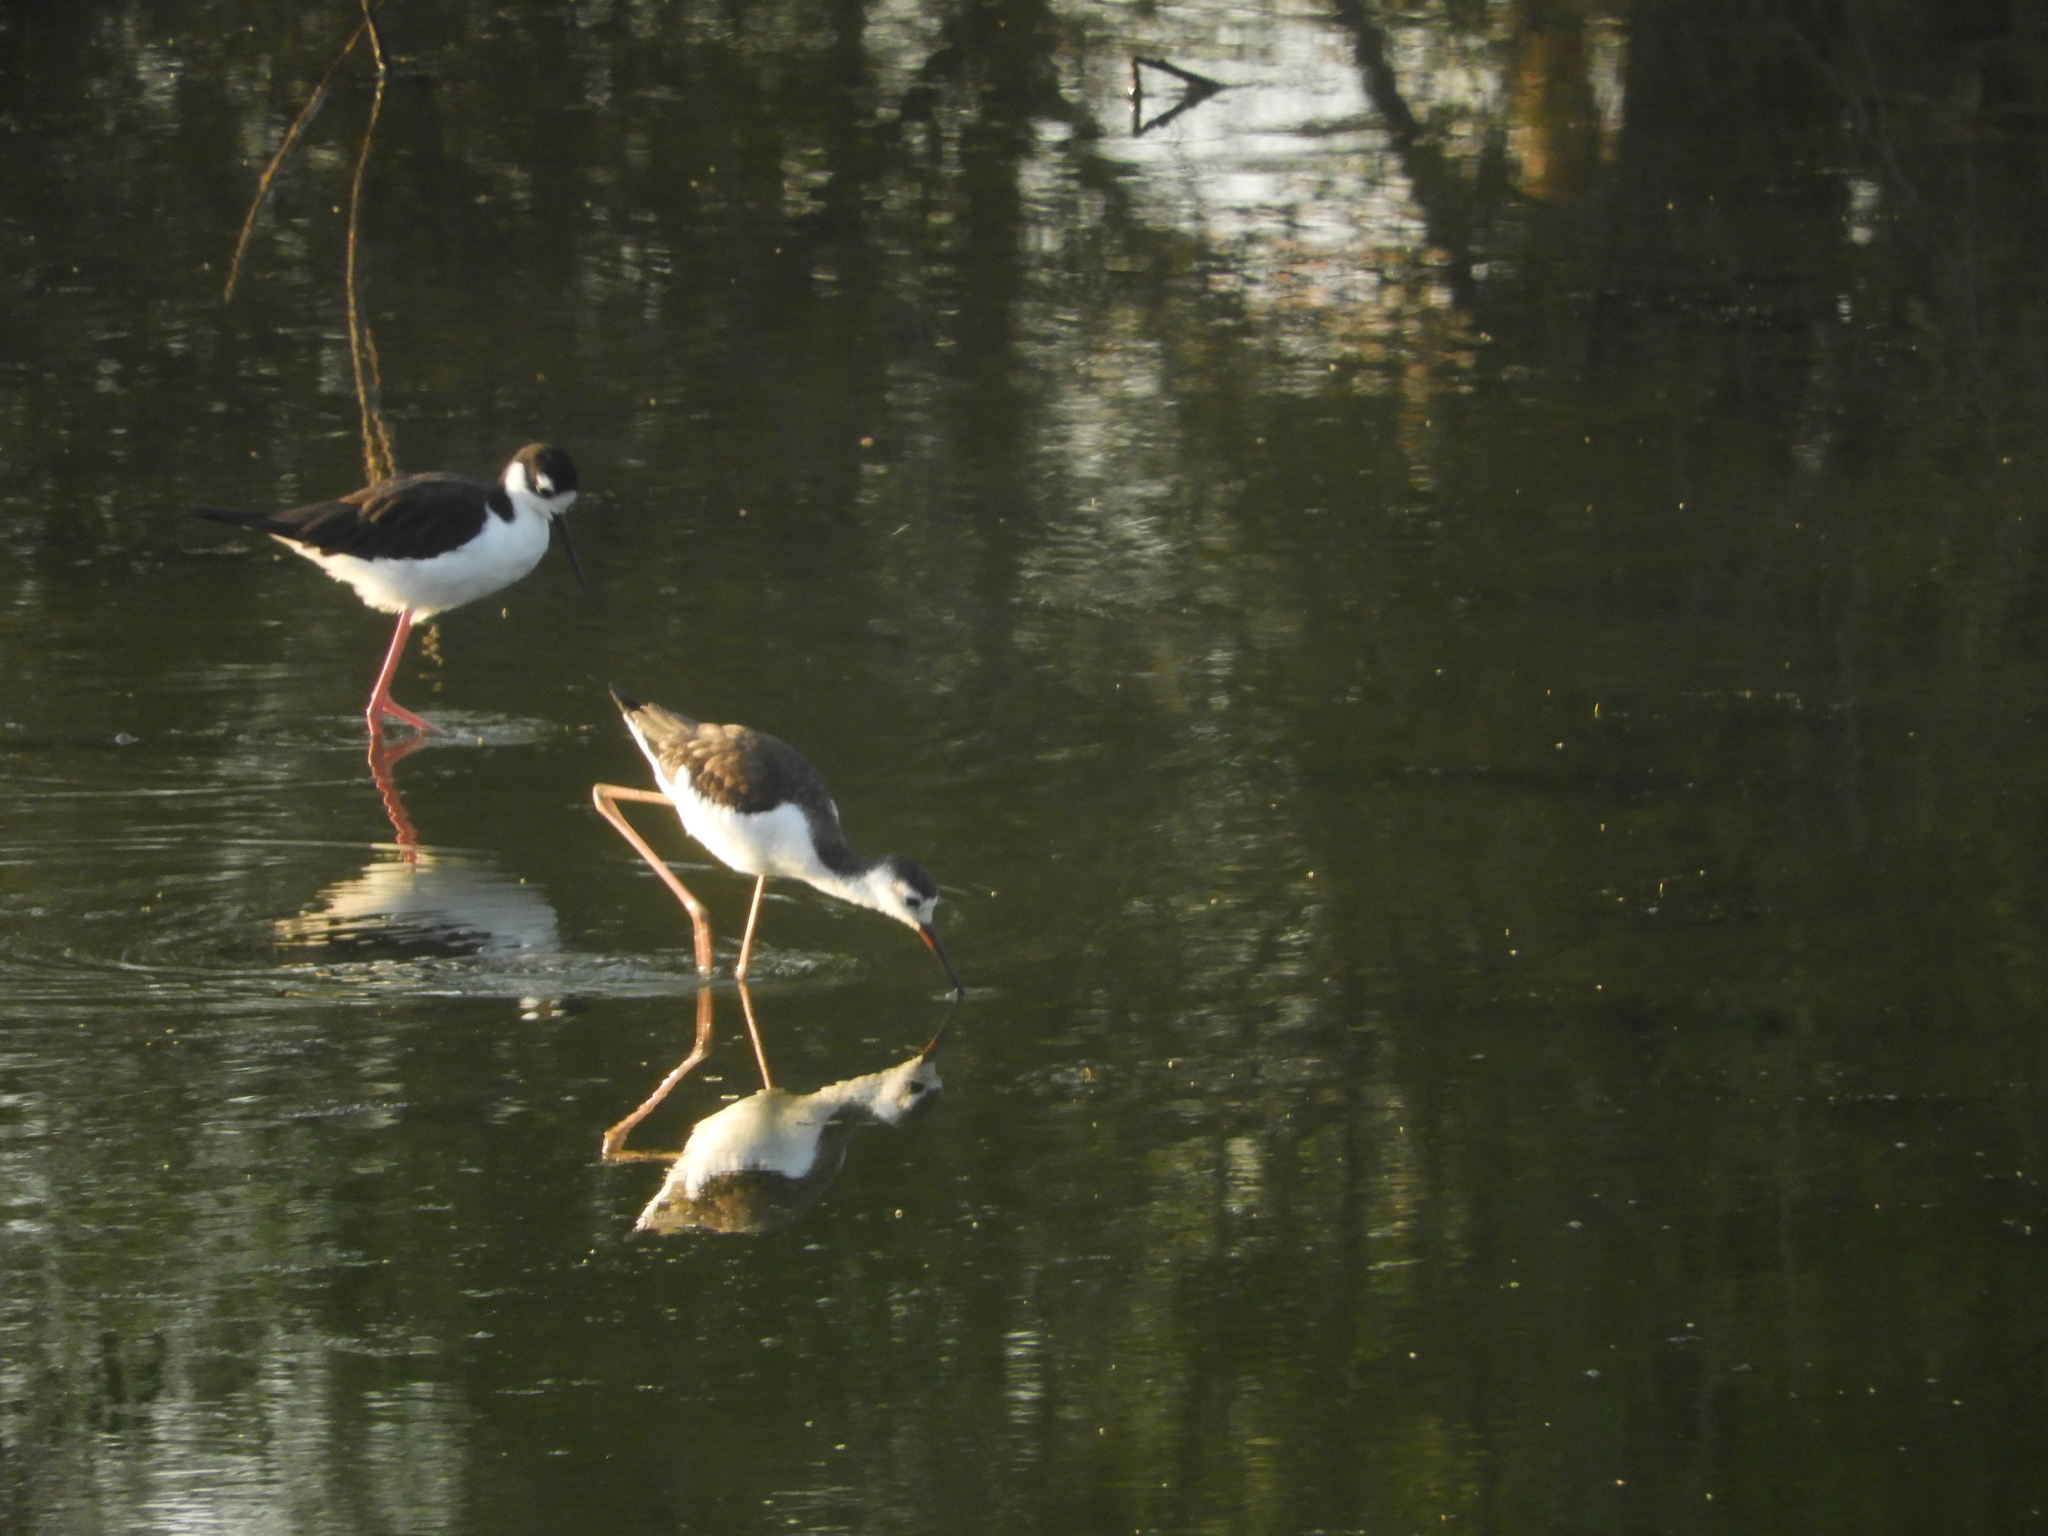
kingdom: Animalia
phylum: Chordata
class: Aves
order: Charadriiformes
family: Recurvirostridae
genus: Himantopus
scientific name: Himantopus mexicanus
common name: Black-necked stilt
